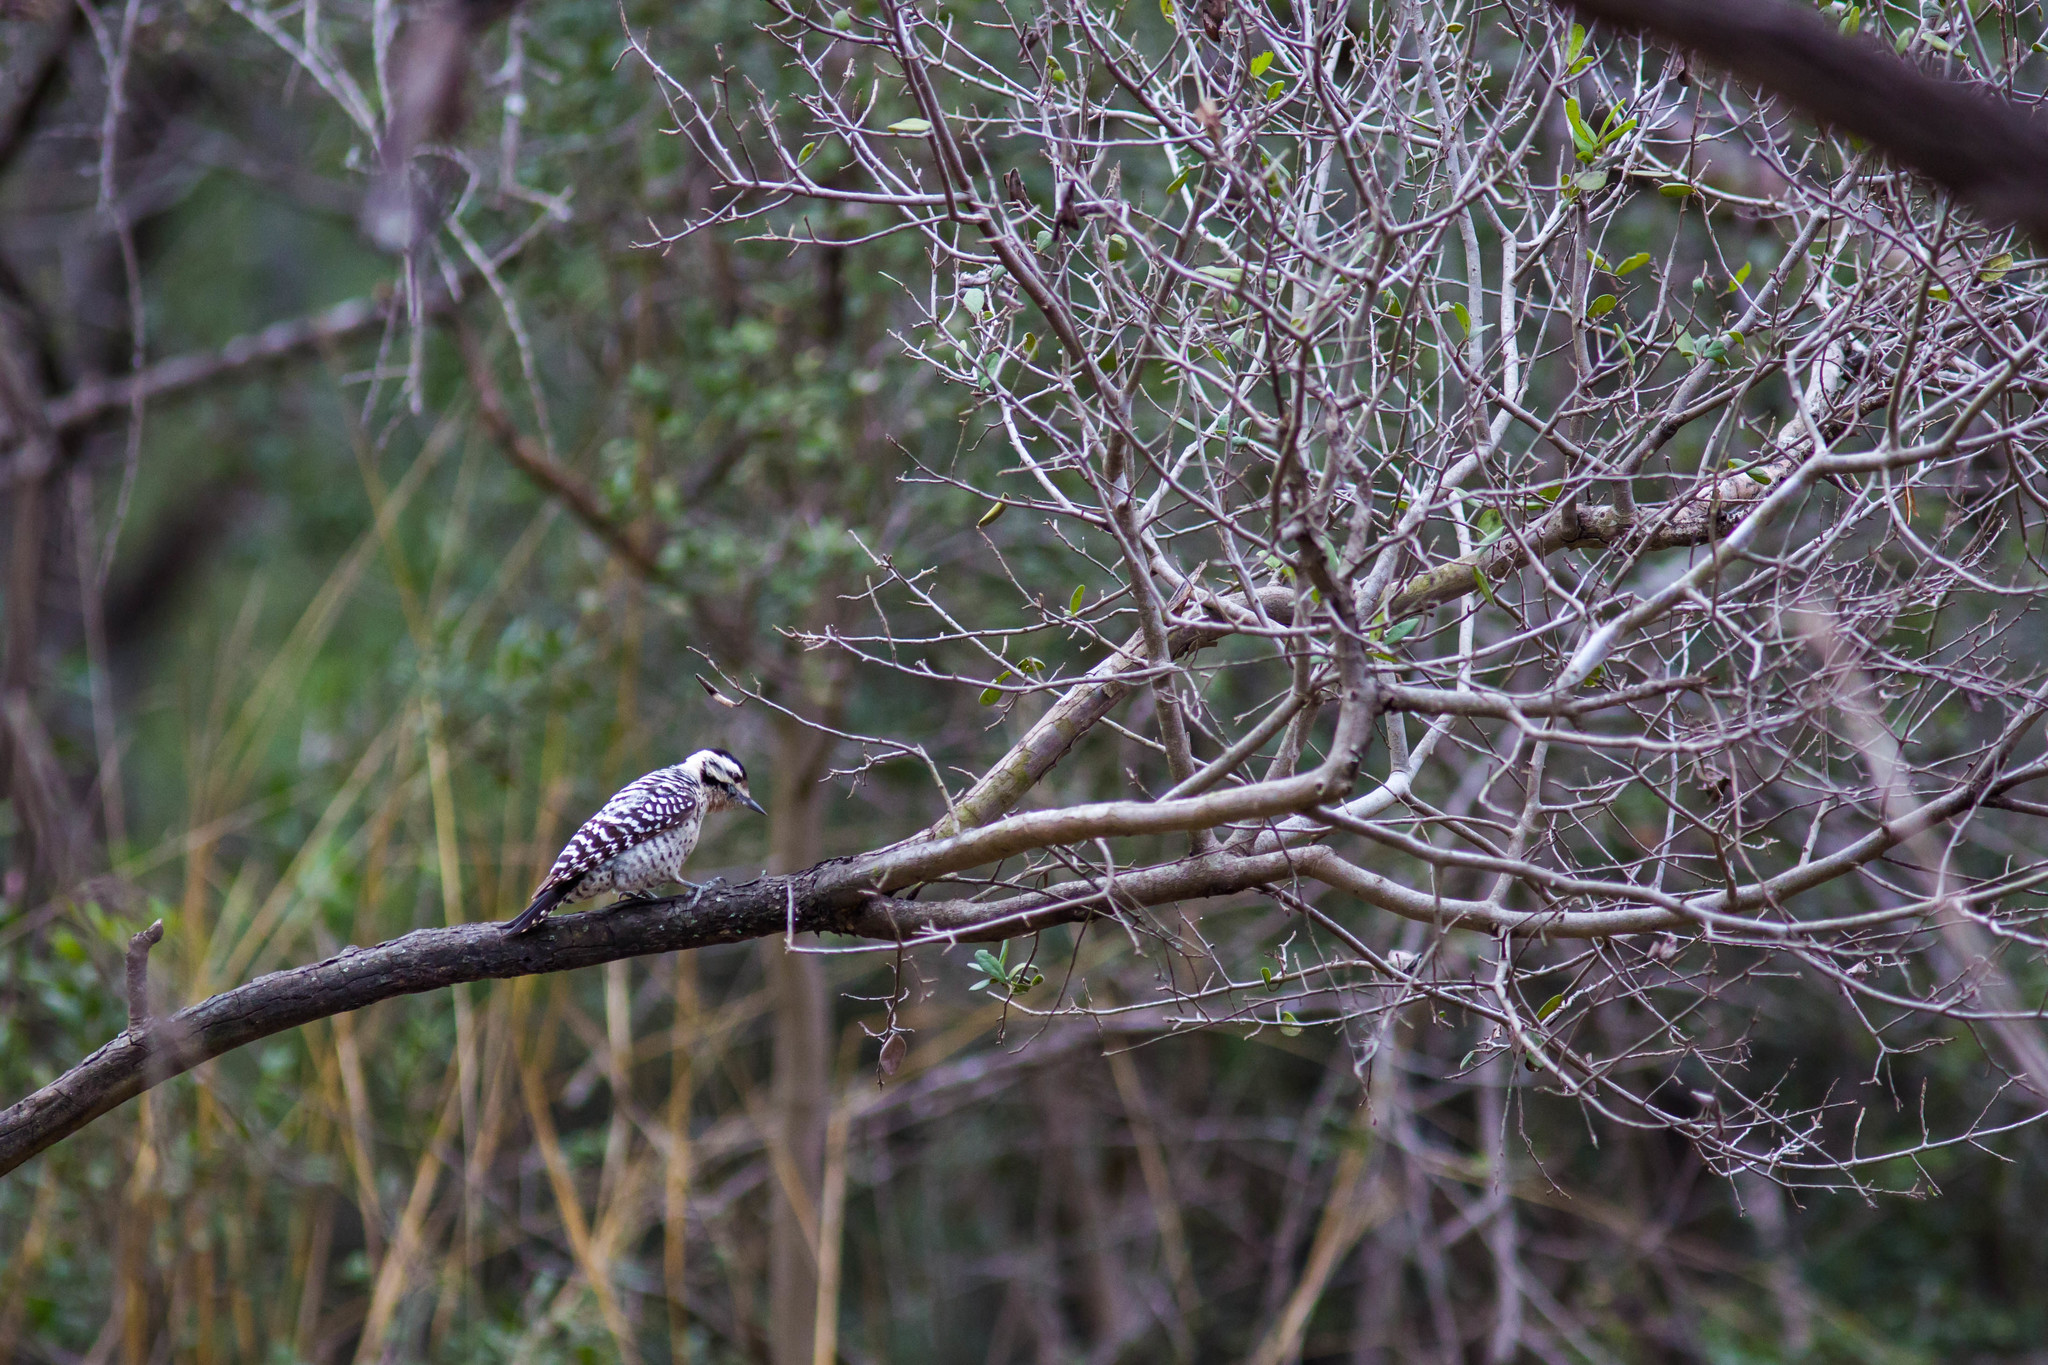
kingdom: Animalia
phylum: Chordata
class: Aves
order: Piciformes
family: Picidae
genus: Dryobates
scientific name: Dryobates scalaris
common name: Ladder-backed woodpecker
